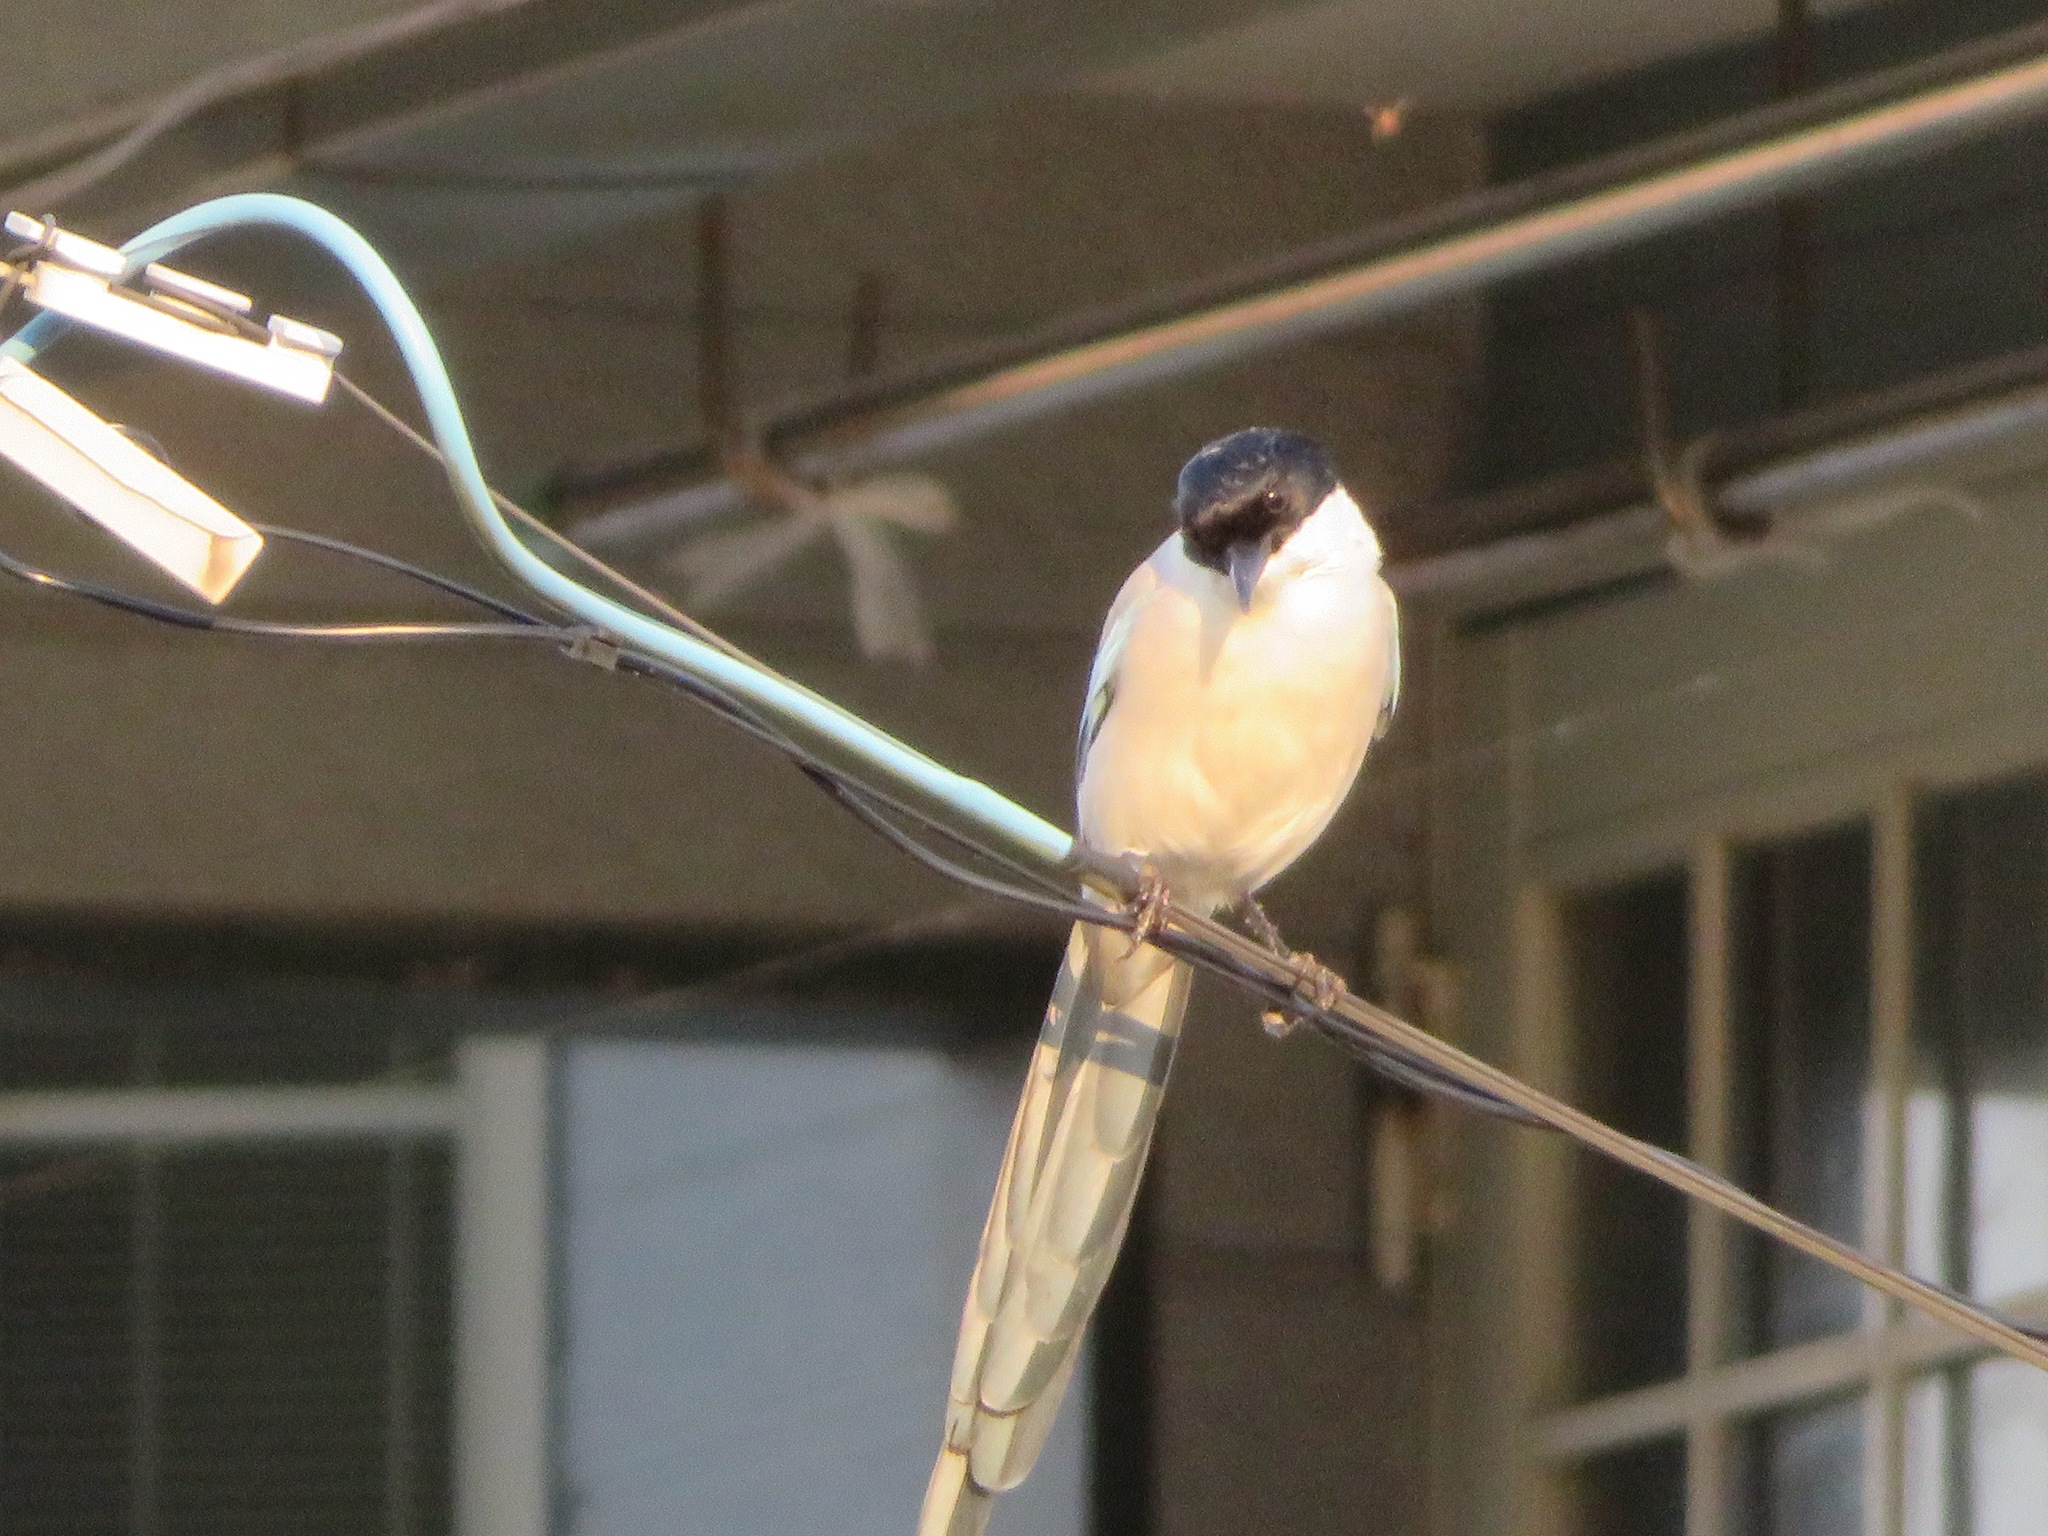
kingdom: Animalia
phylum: Chordata
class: Aves
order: Passeriformes
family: Corvidae
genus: Cyanopica
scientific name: Cyanopica cyanus
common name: Azure-winged magpie
